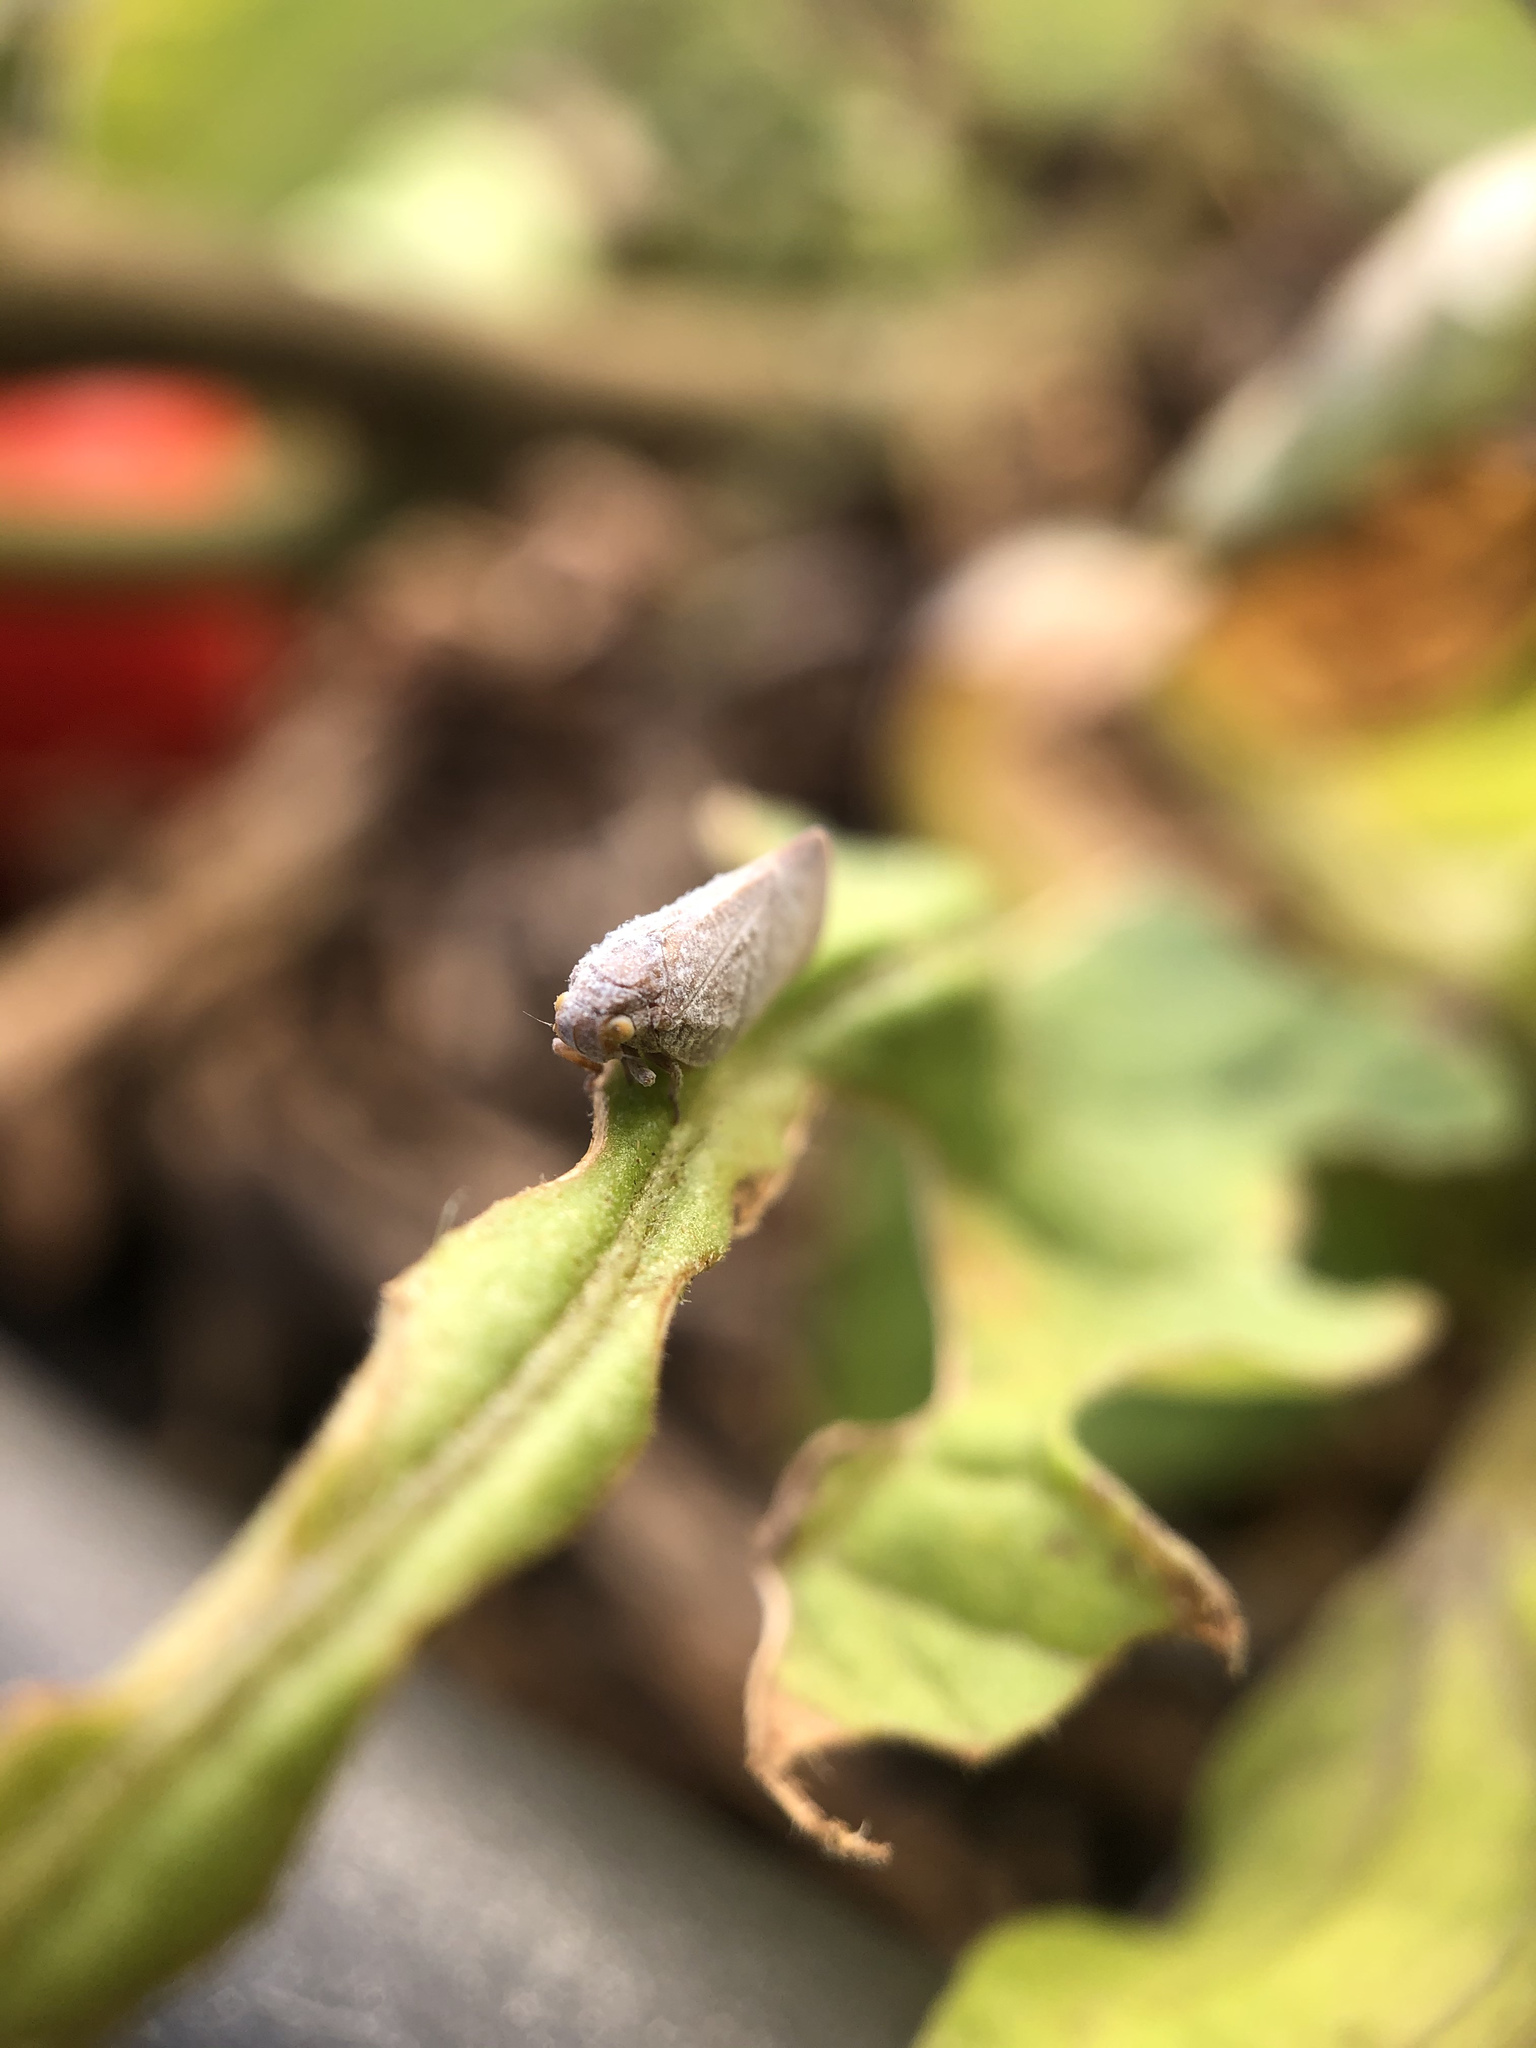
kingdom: Animalia
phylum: Arthropoda
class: Insecta
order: Hemiptera
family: Flatidae
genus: Anzora
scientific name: Anzora unicolor
